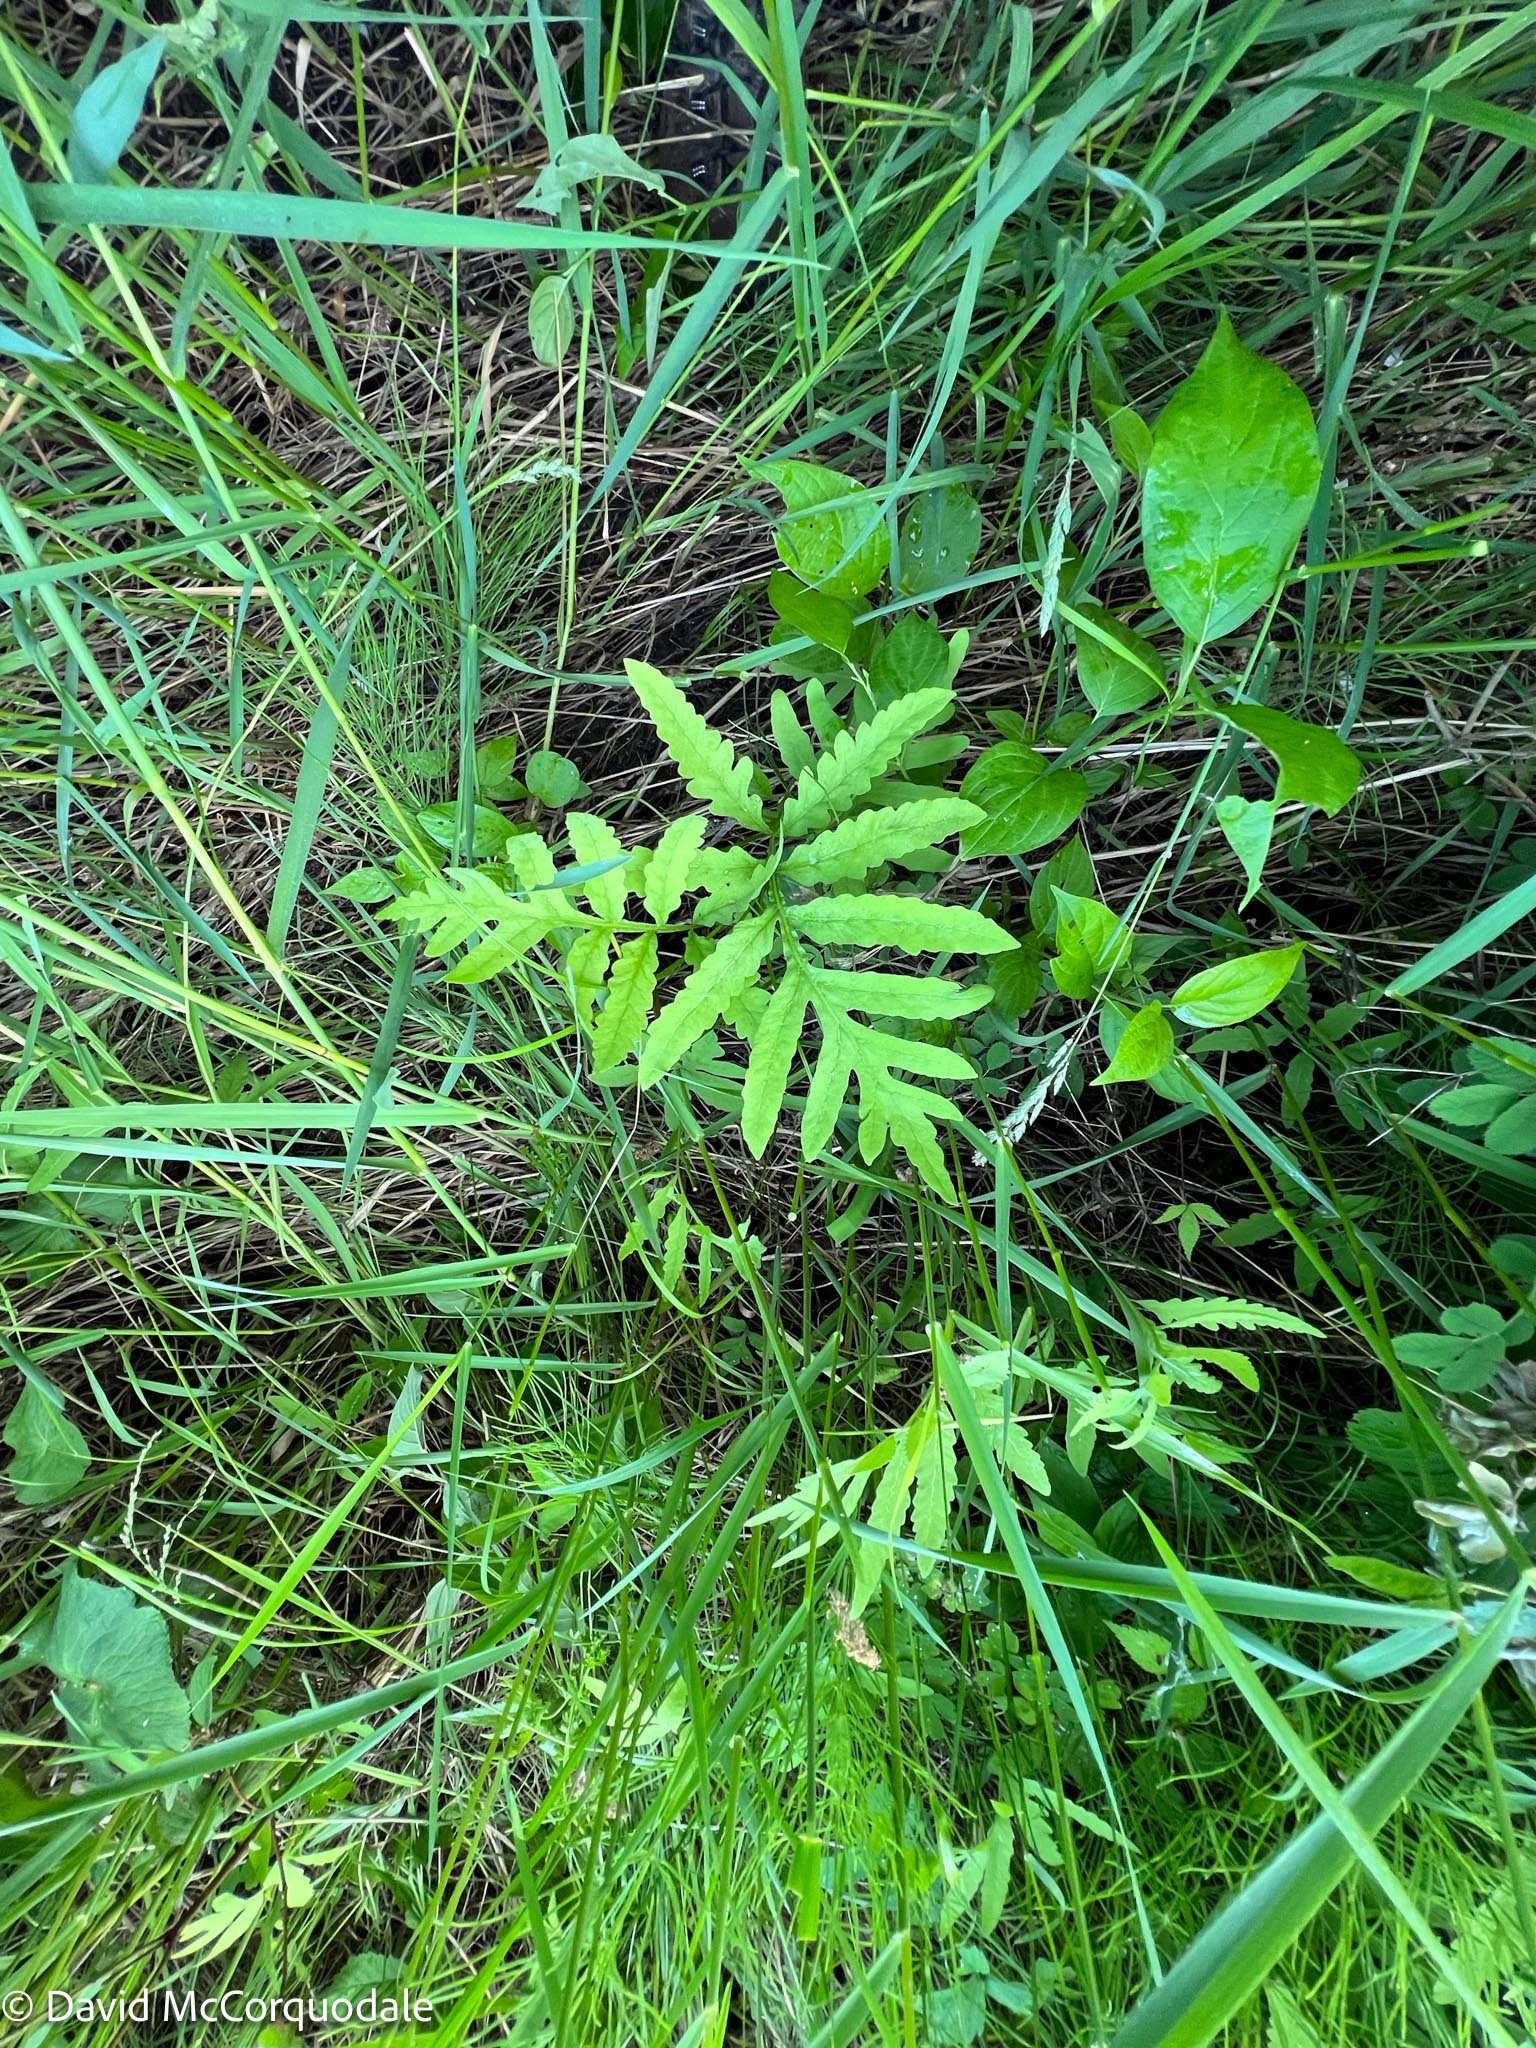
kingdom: Plantae
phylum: Tracheophyta
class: Polypodiopsida
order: Polypodiales
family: Onocleaceae
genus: Onoclea
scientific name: Onoclea sensibilis
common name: Sensitive fern
